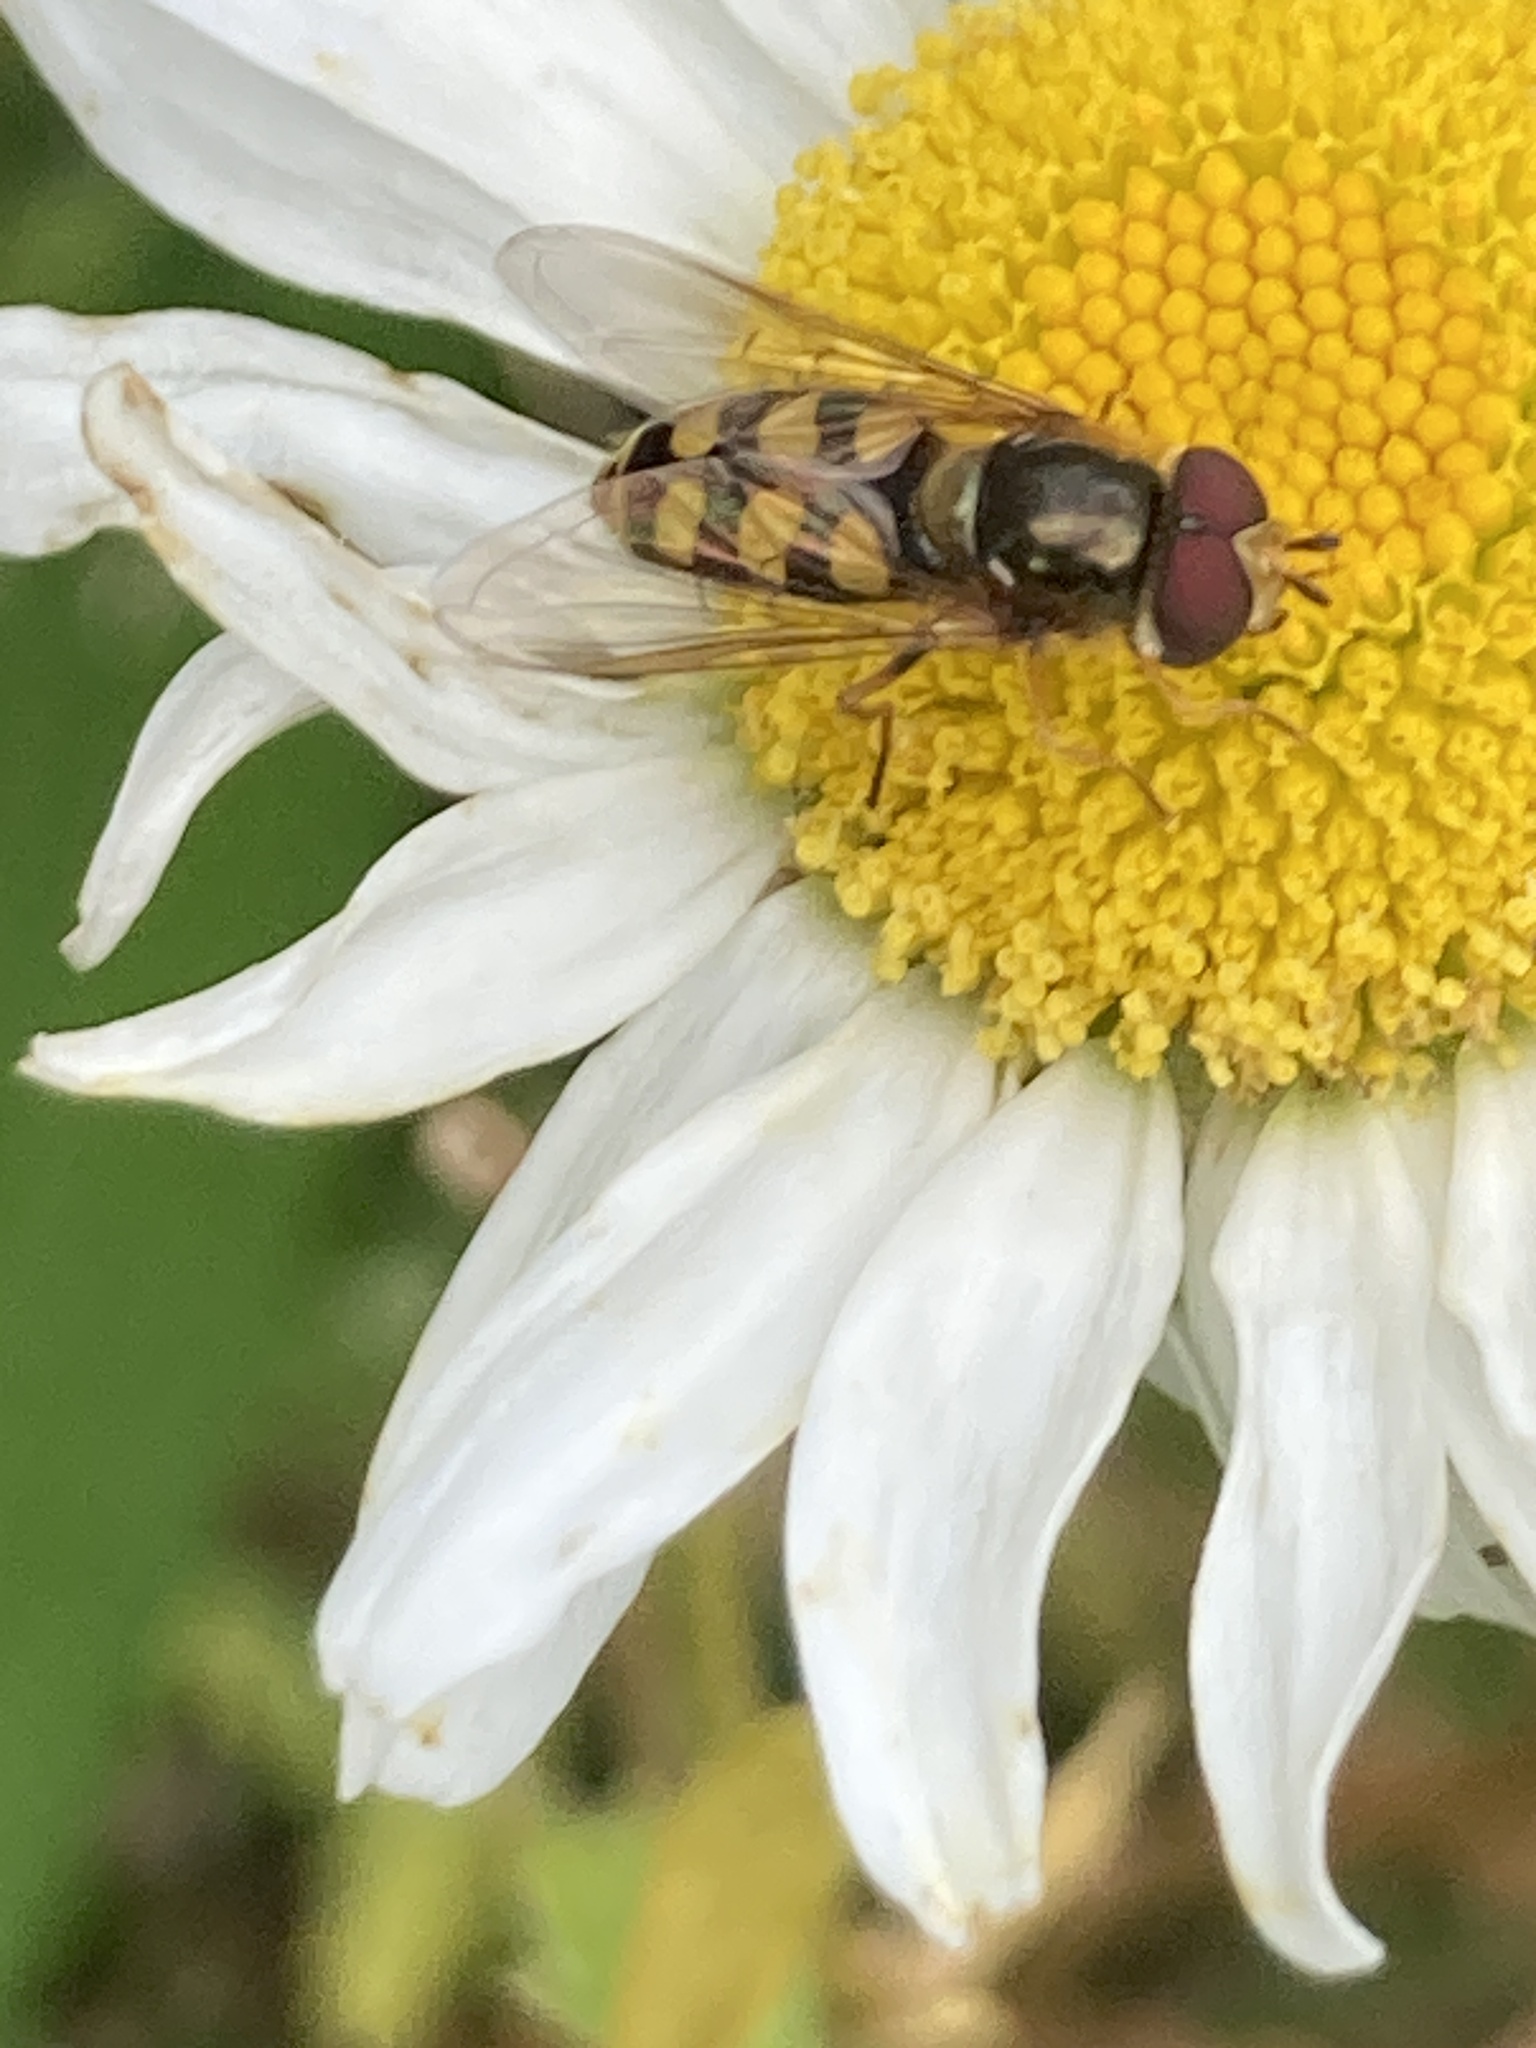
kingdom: Animalia
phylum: Arthropoda
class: Insecta
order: Diptera
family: Syrphidae
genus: Eupeodes
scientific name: Eupeodes
